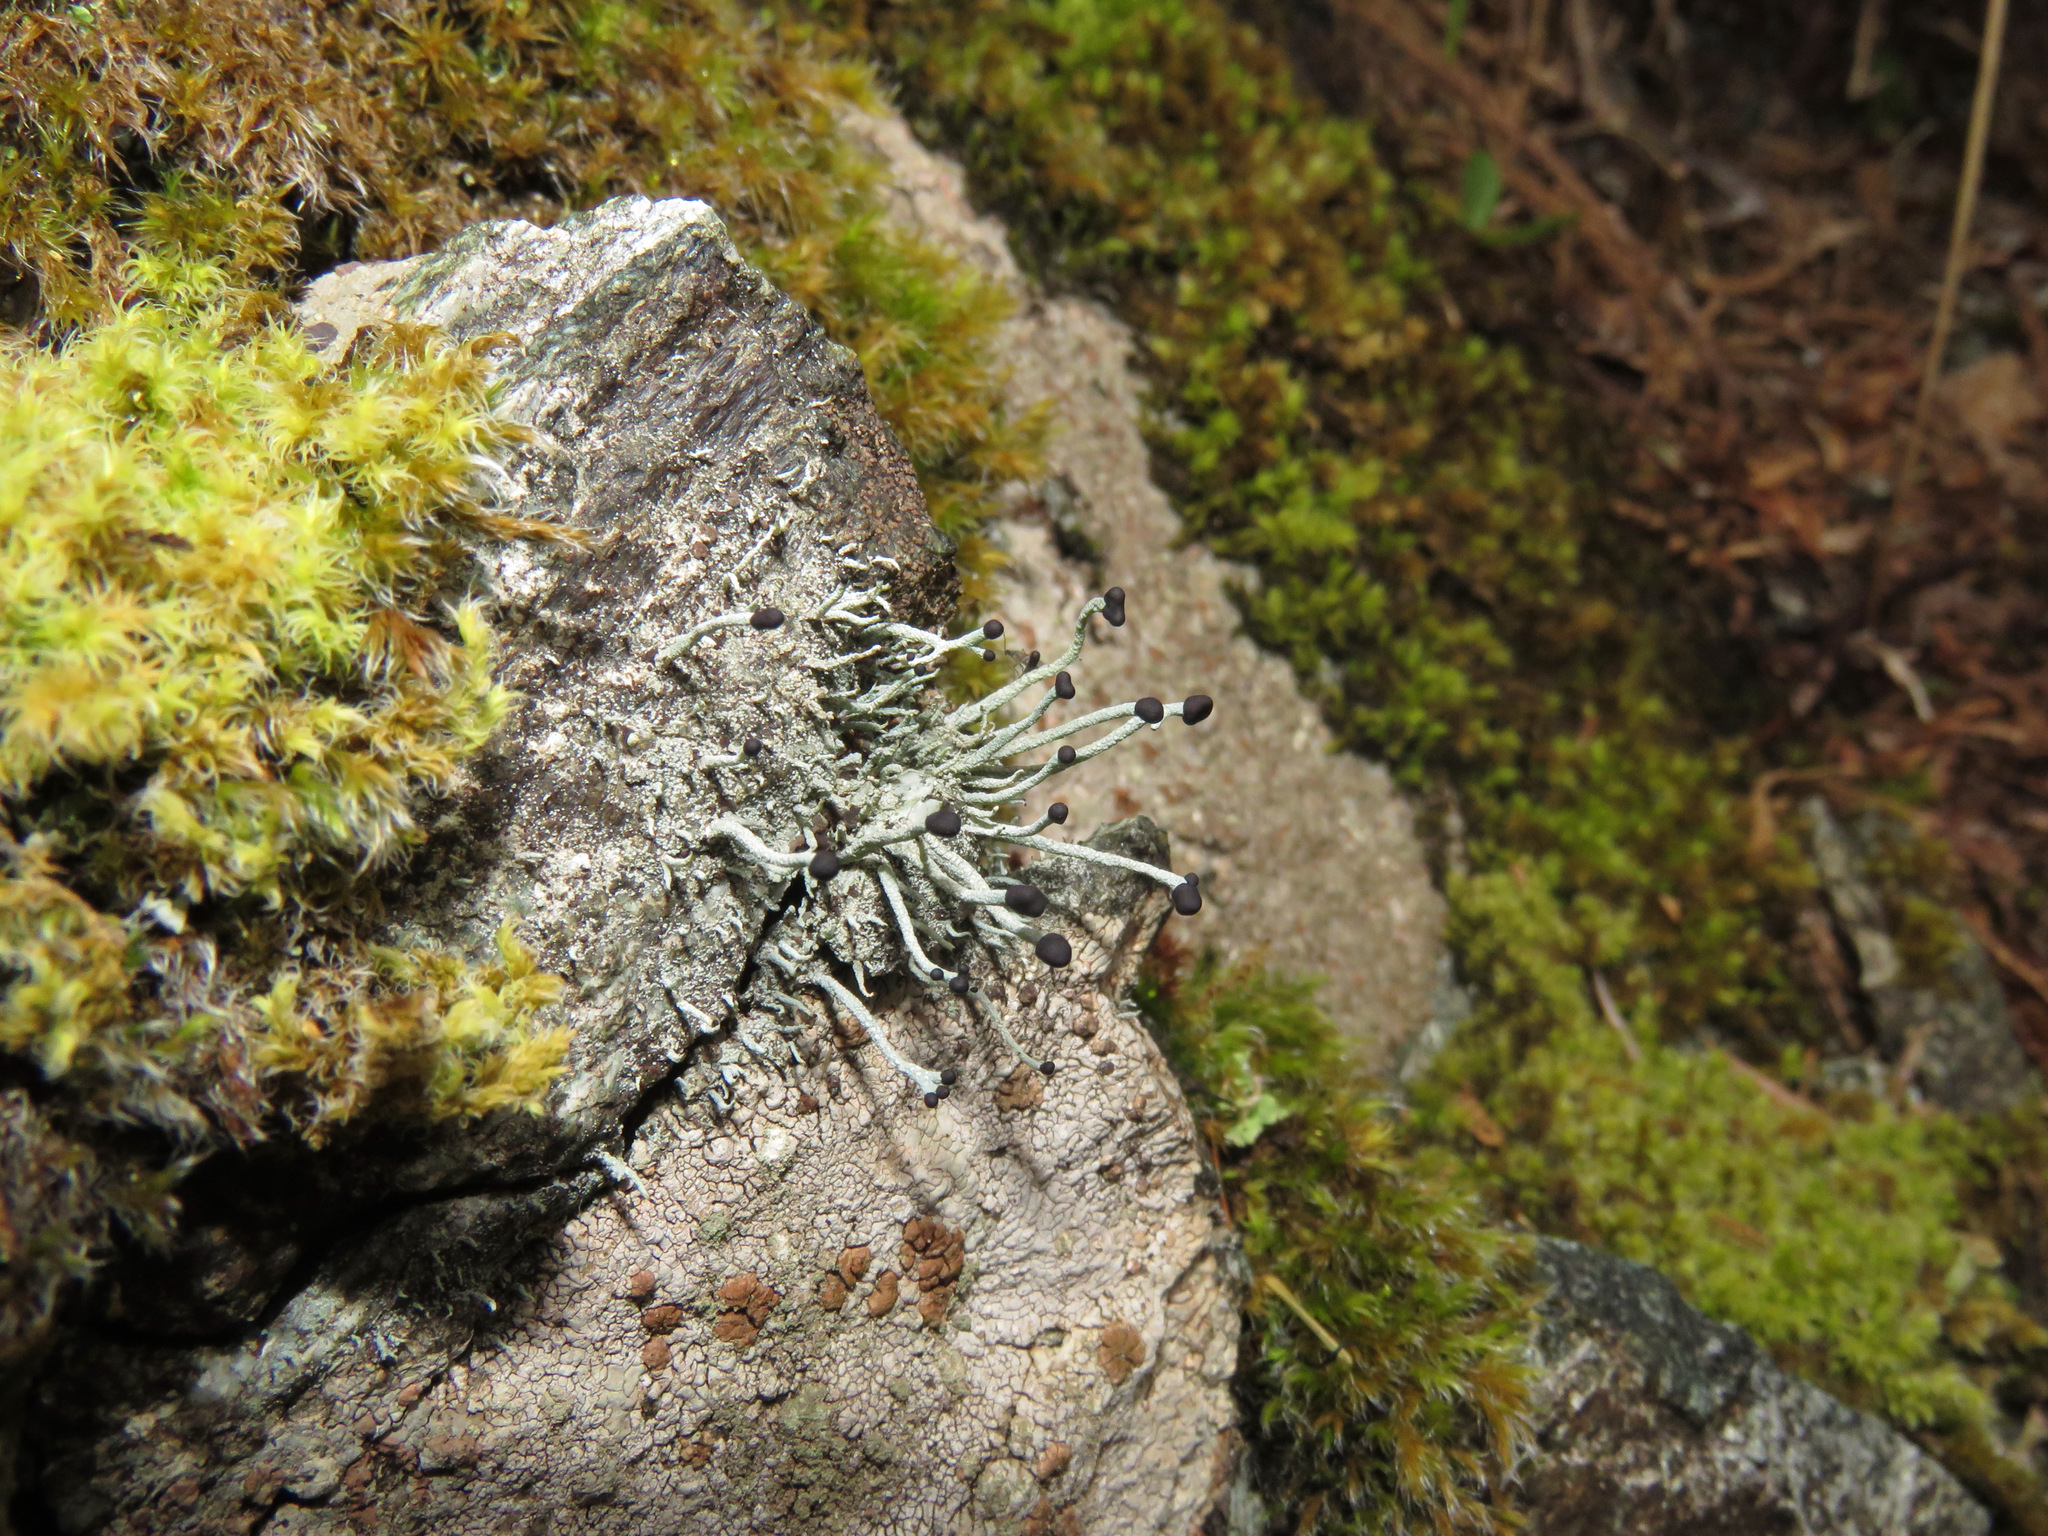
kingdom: Fungi
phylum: Ascomycota
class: Lecanoromycetes
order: Lecanorales
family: Cladoniaceae
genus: Pilophorus
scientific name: Pilophorus acicularis
